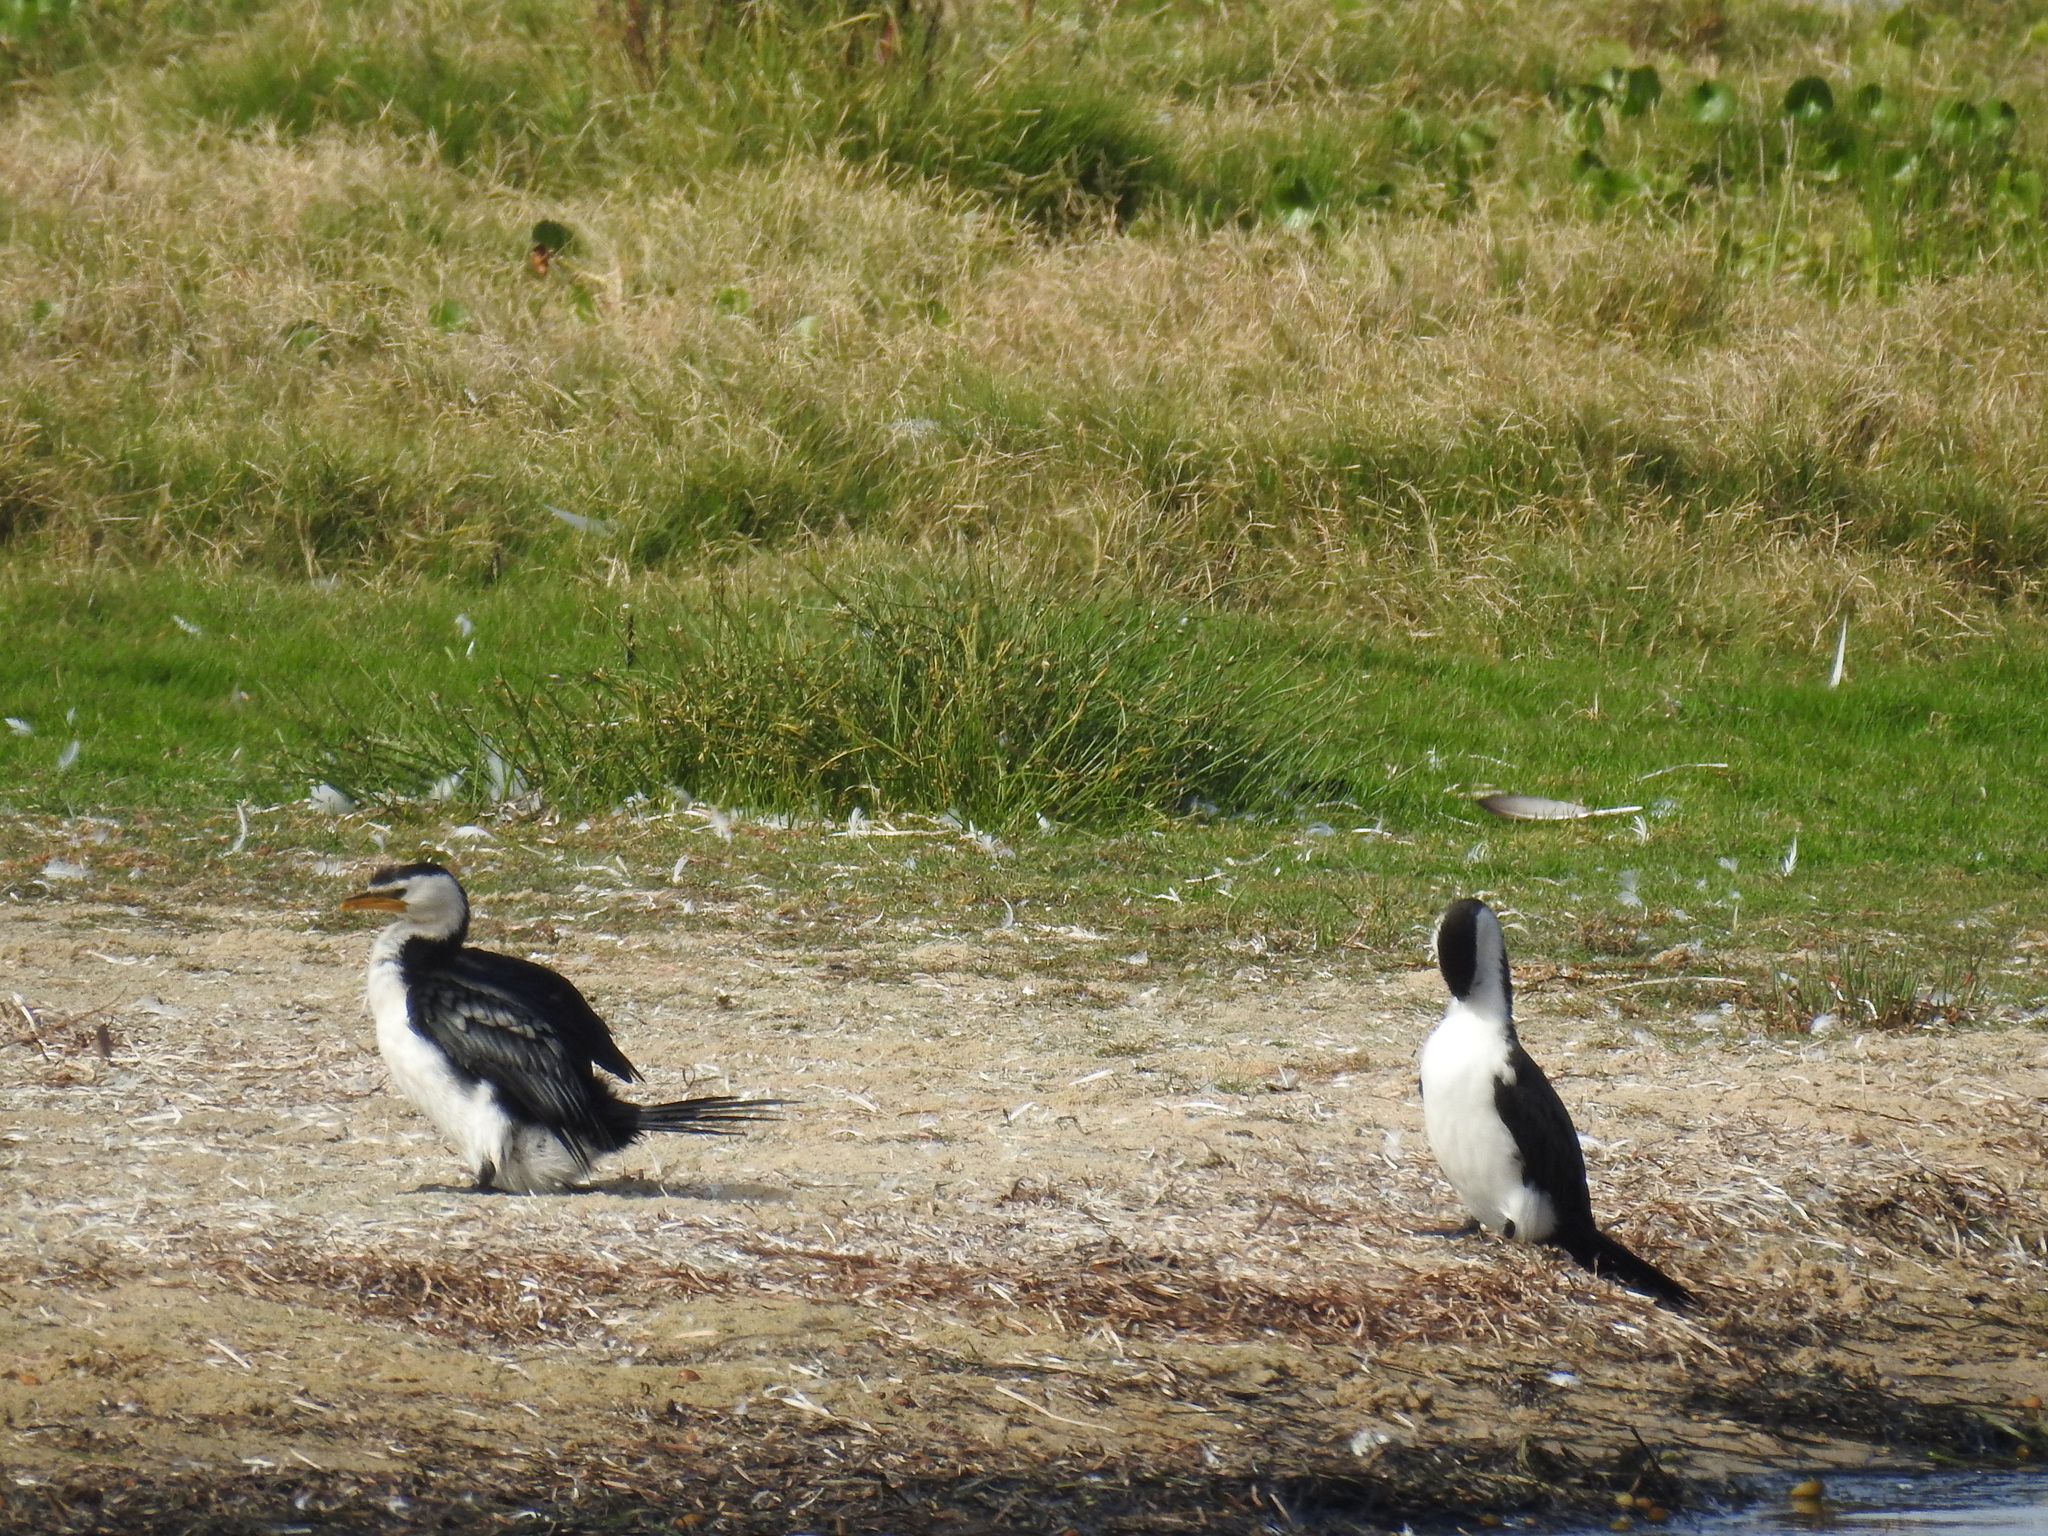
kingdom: Animalia
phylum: Chordata
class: Aves
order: Suliformes
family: Phalacrocoracidae
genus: Microcarbo
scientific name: Microcarbo melanoleucos
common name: Little pied cormorant
